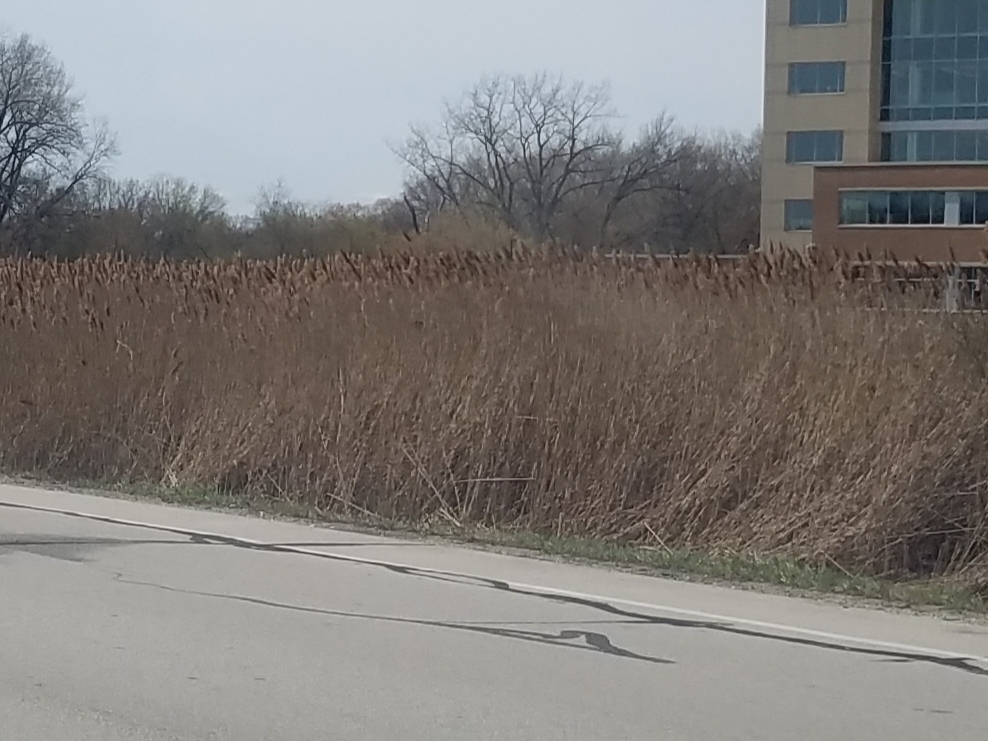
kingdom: Plantae
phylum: Tracheophyta
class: Liliopsida
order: Poales
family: Poaceae
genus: Phragmites
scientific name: Phragmites australis
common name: Common reed
